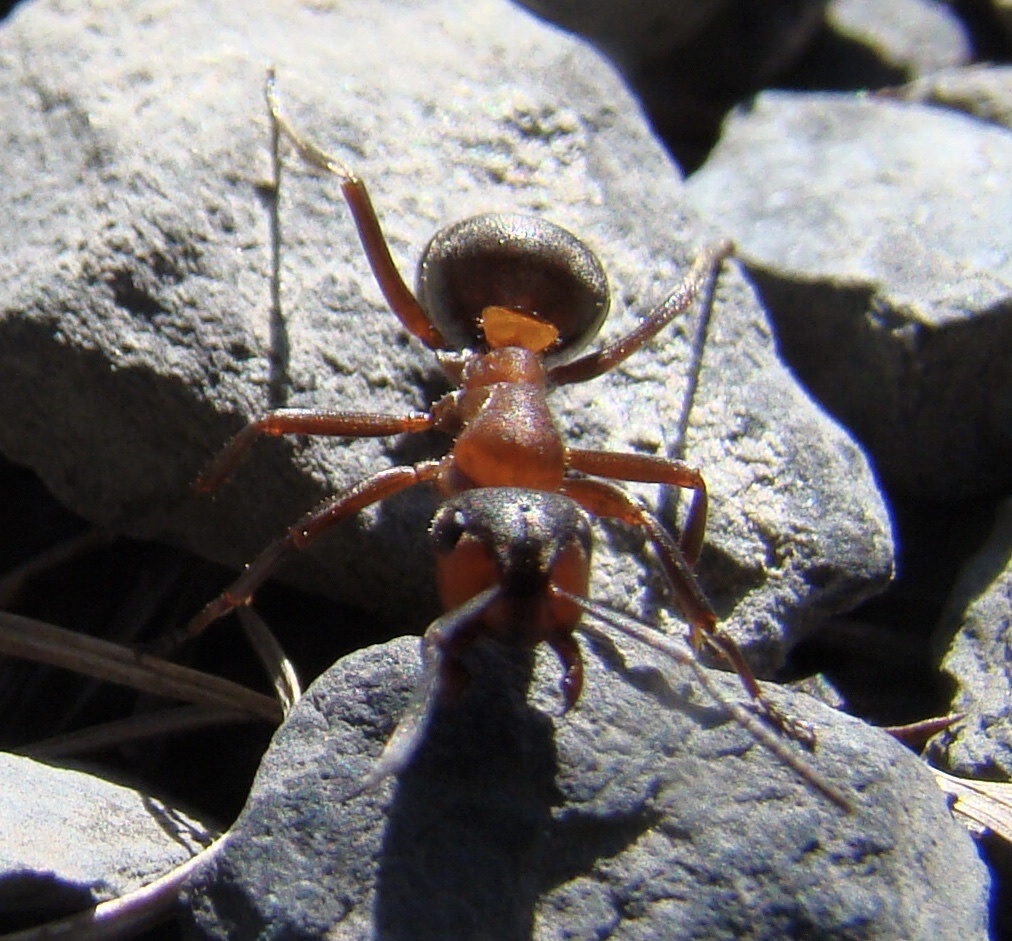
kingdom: Animalia
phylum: Arthropoda
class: Insecta
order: Hymenoptera
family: Formicidae
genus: Formica
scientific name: Formica rufa
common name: Red wood ant
